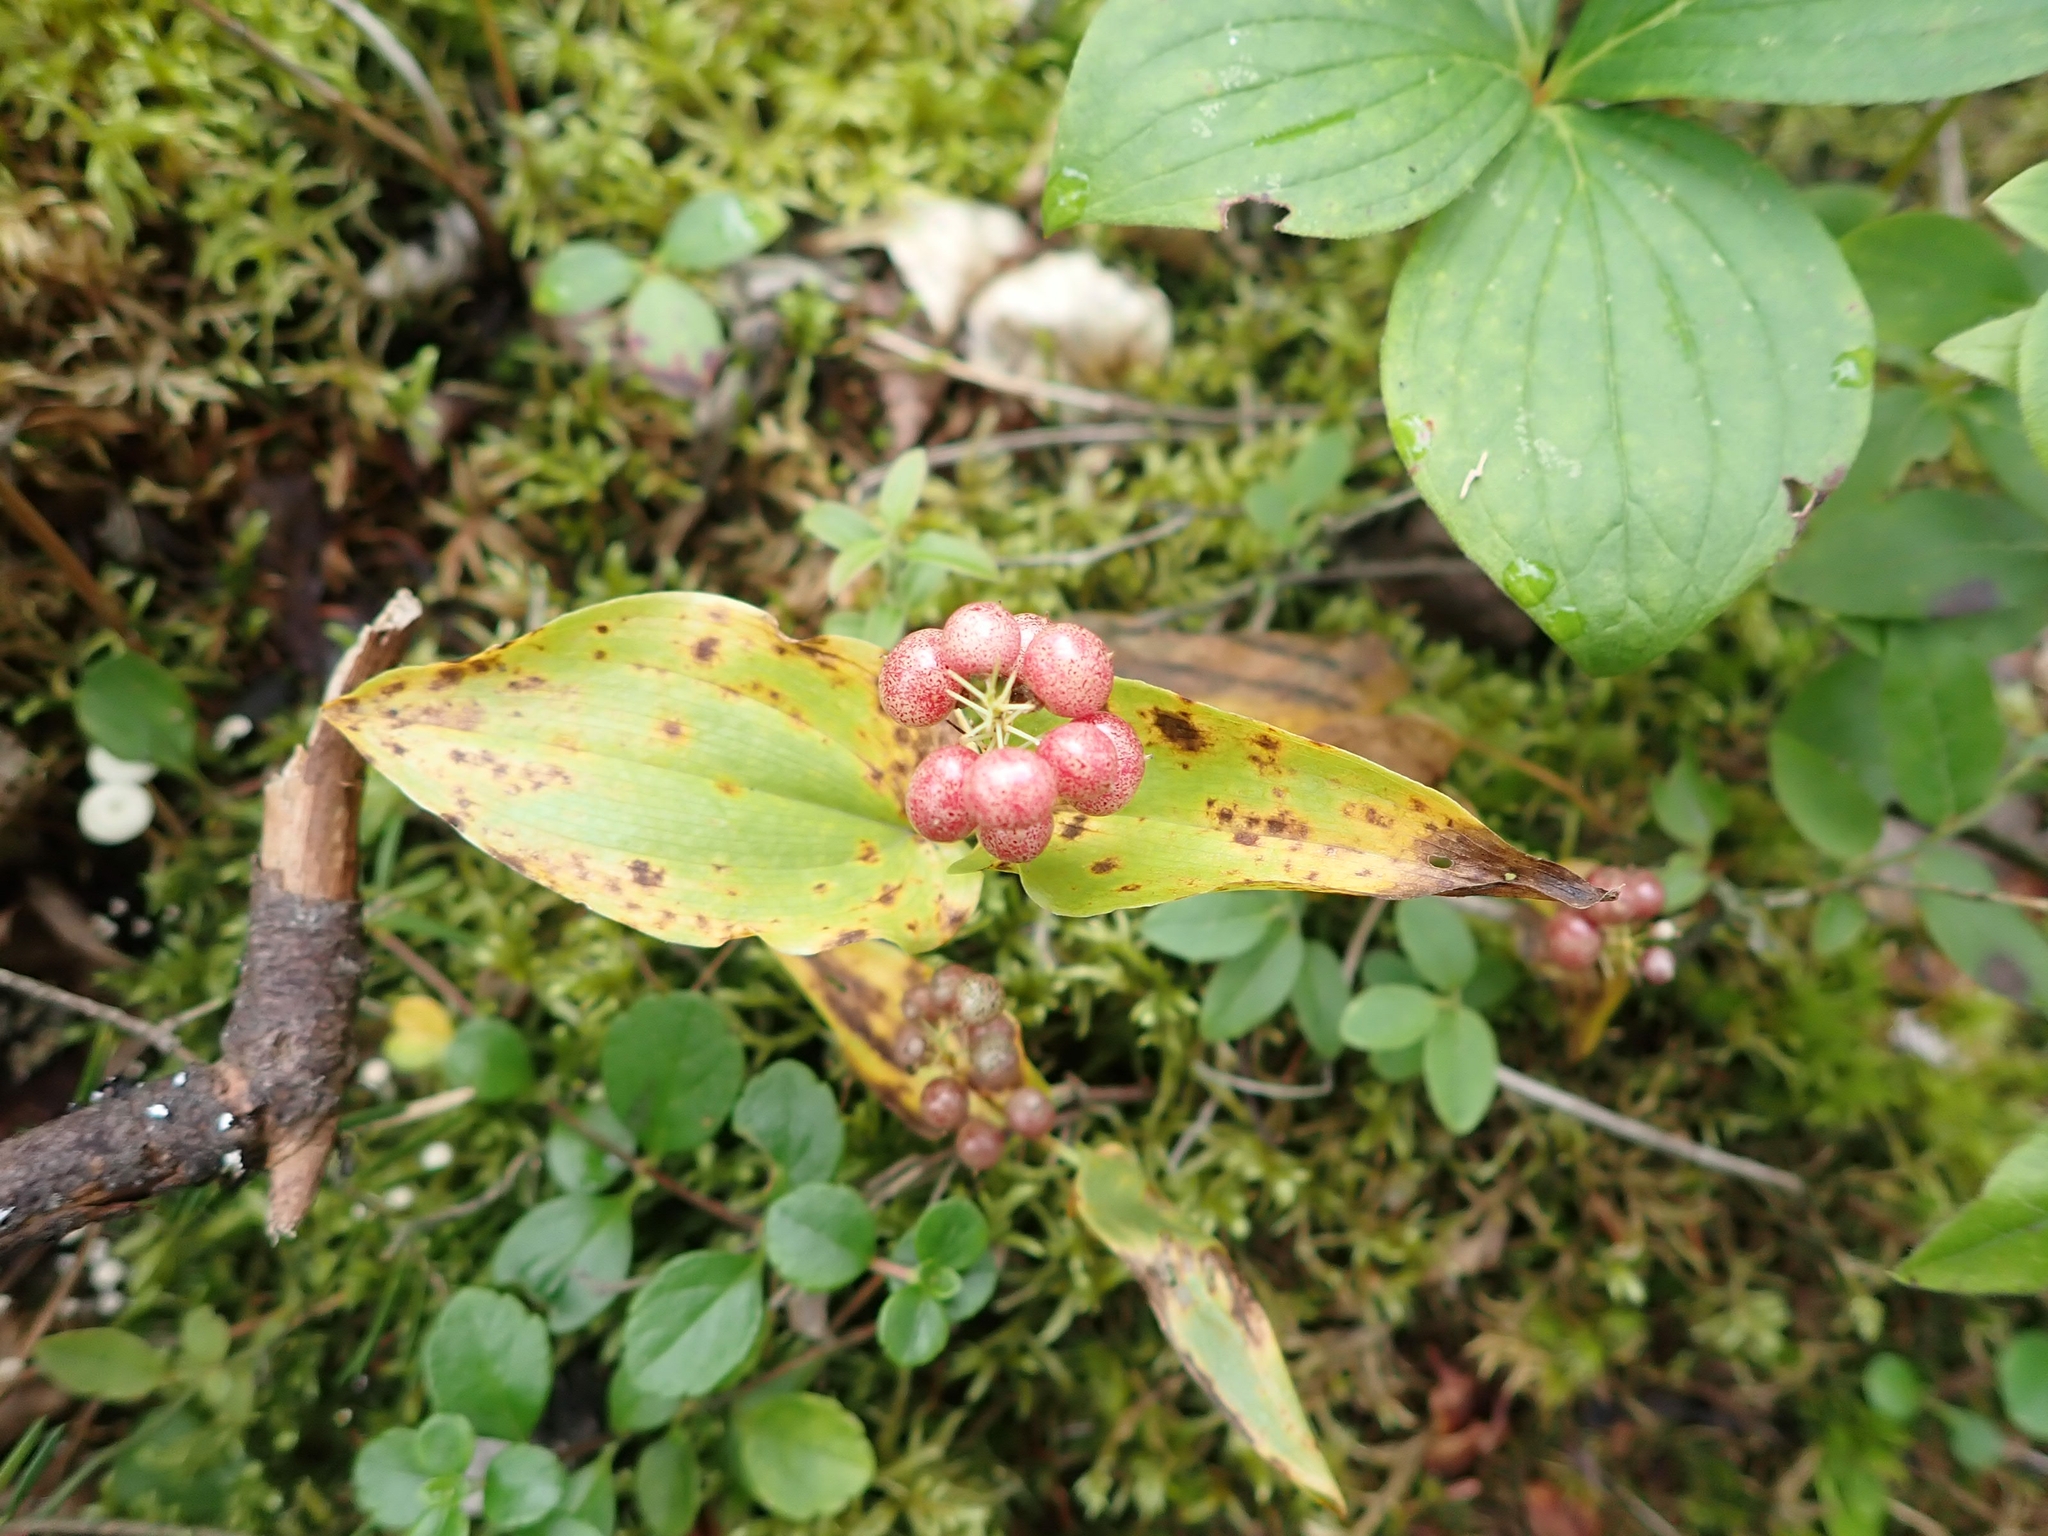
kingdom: Plantae
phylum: Tracheophyta
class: Liliopsida
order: Asparagales
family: Asparagaceae
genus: Maianthemum
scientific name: Maianthemum canadense
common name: False lily-of-the-valley
